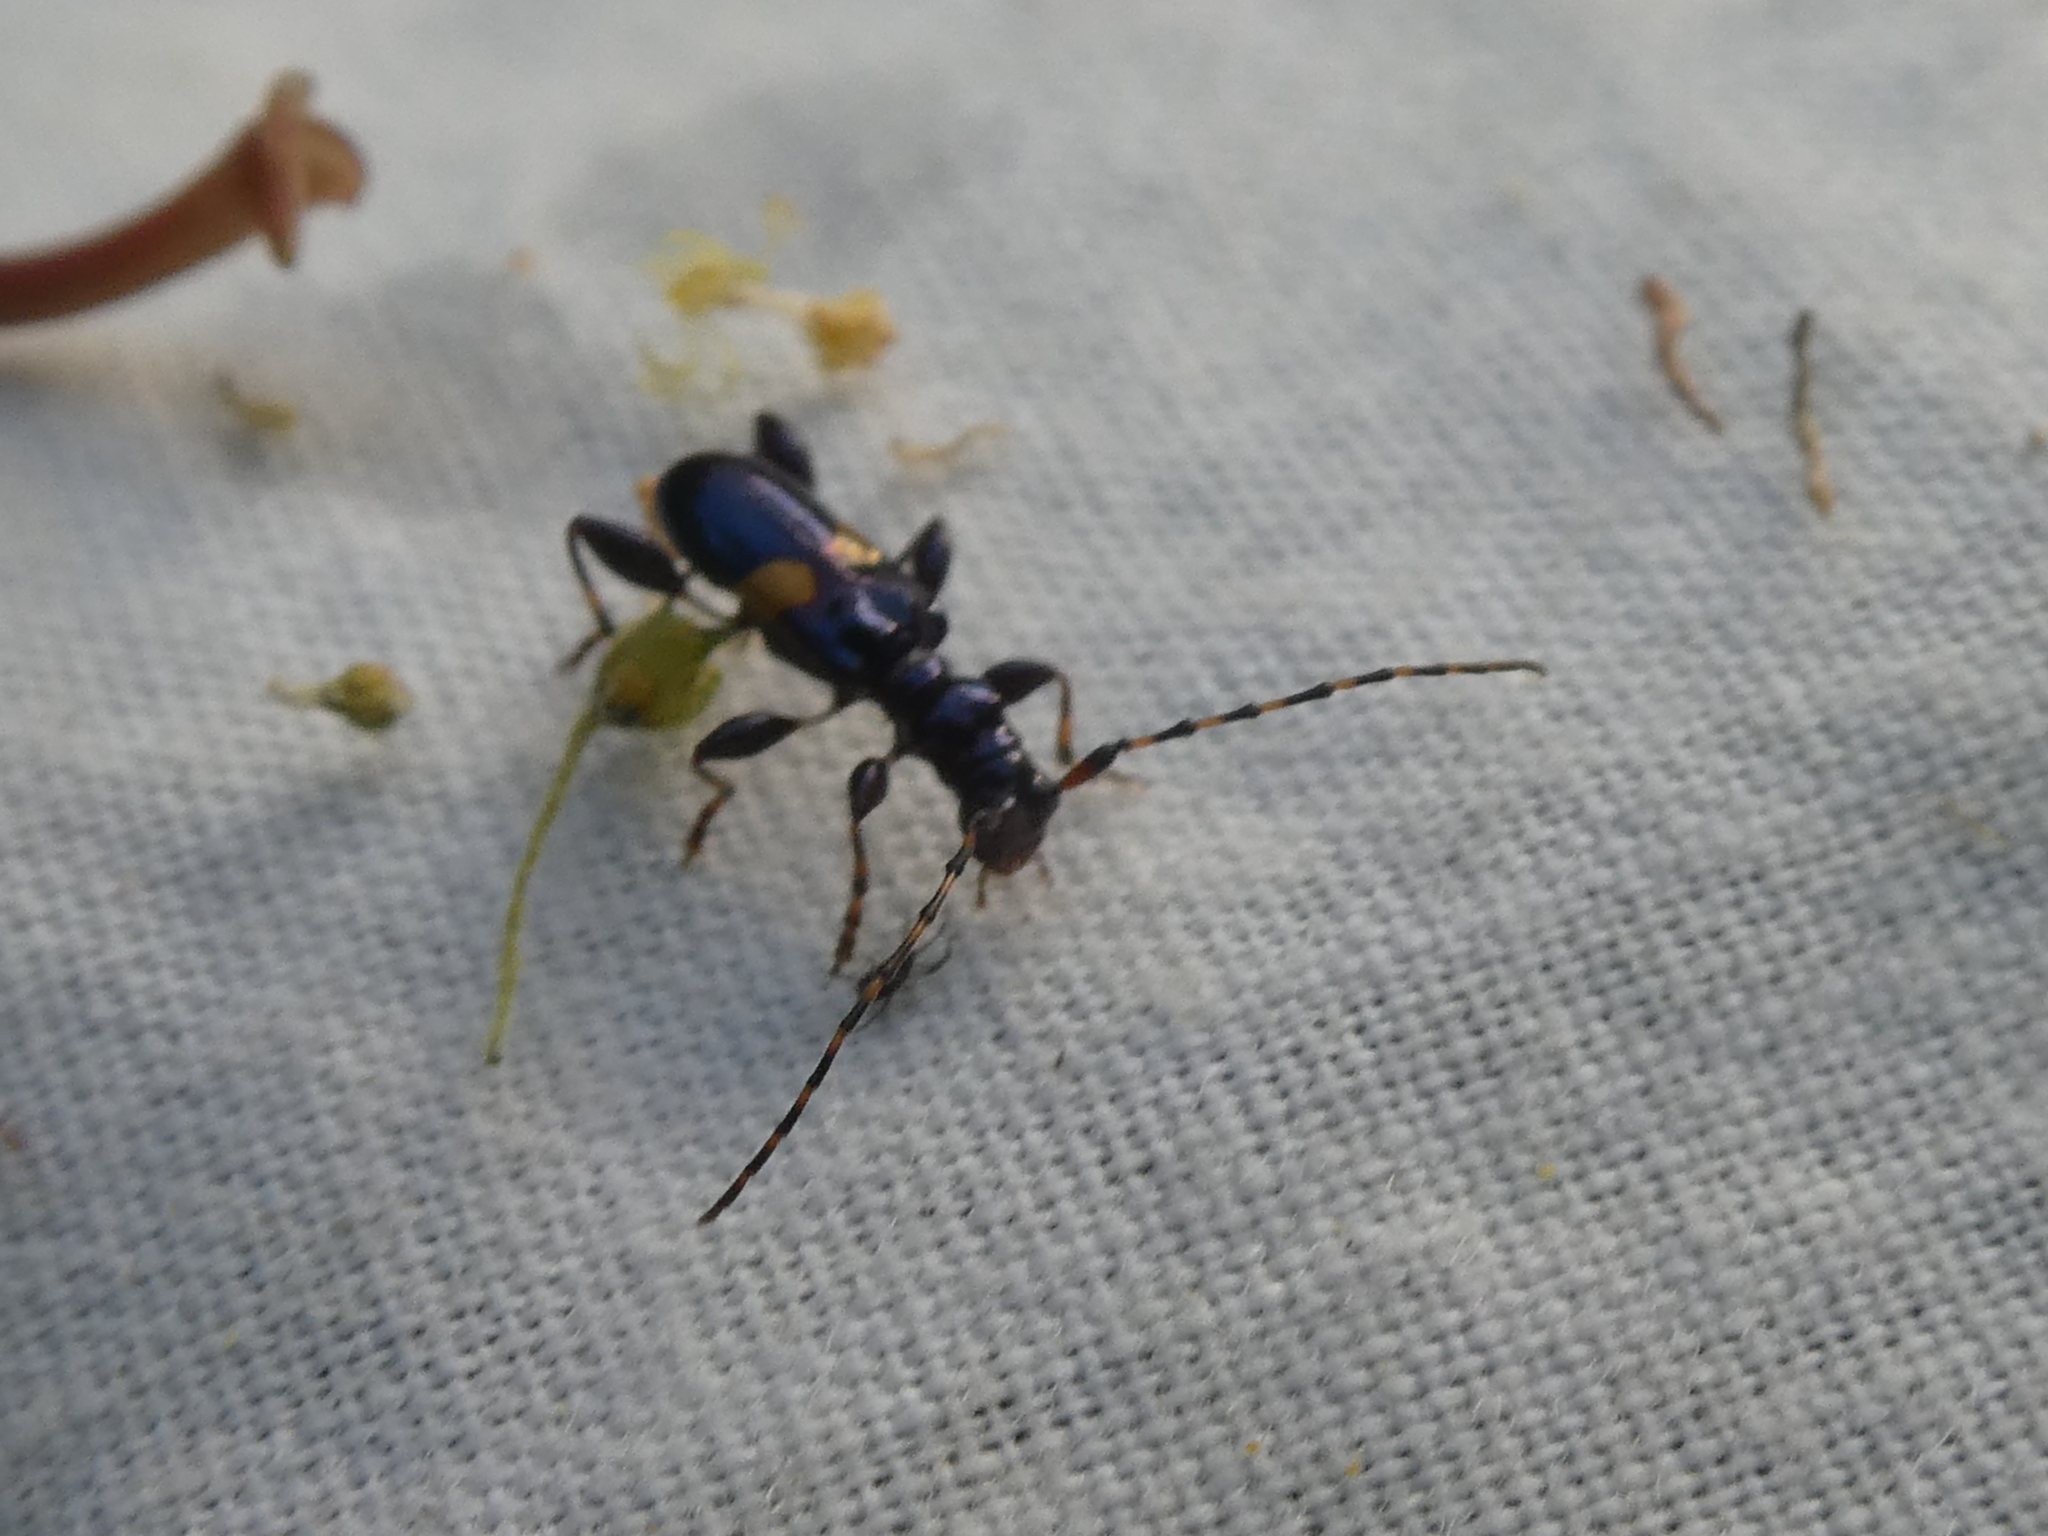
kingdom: Animalia
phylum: Arthropoda
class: Insecta
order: Coleoptera
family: Cerambycidae
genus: Zorion
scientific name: Zorion guttigerum
